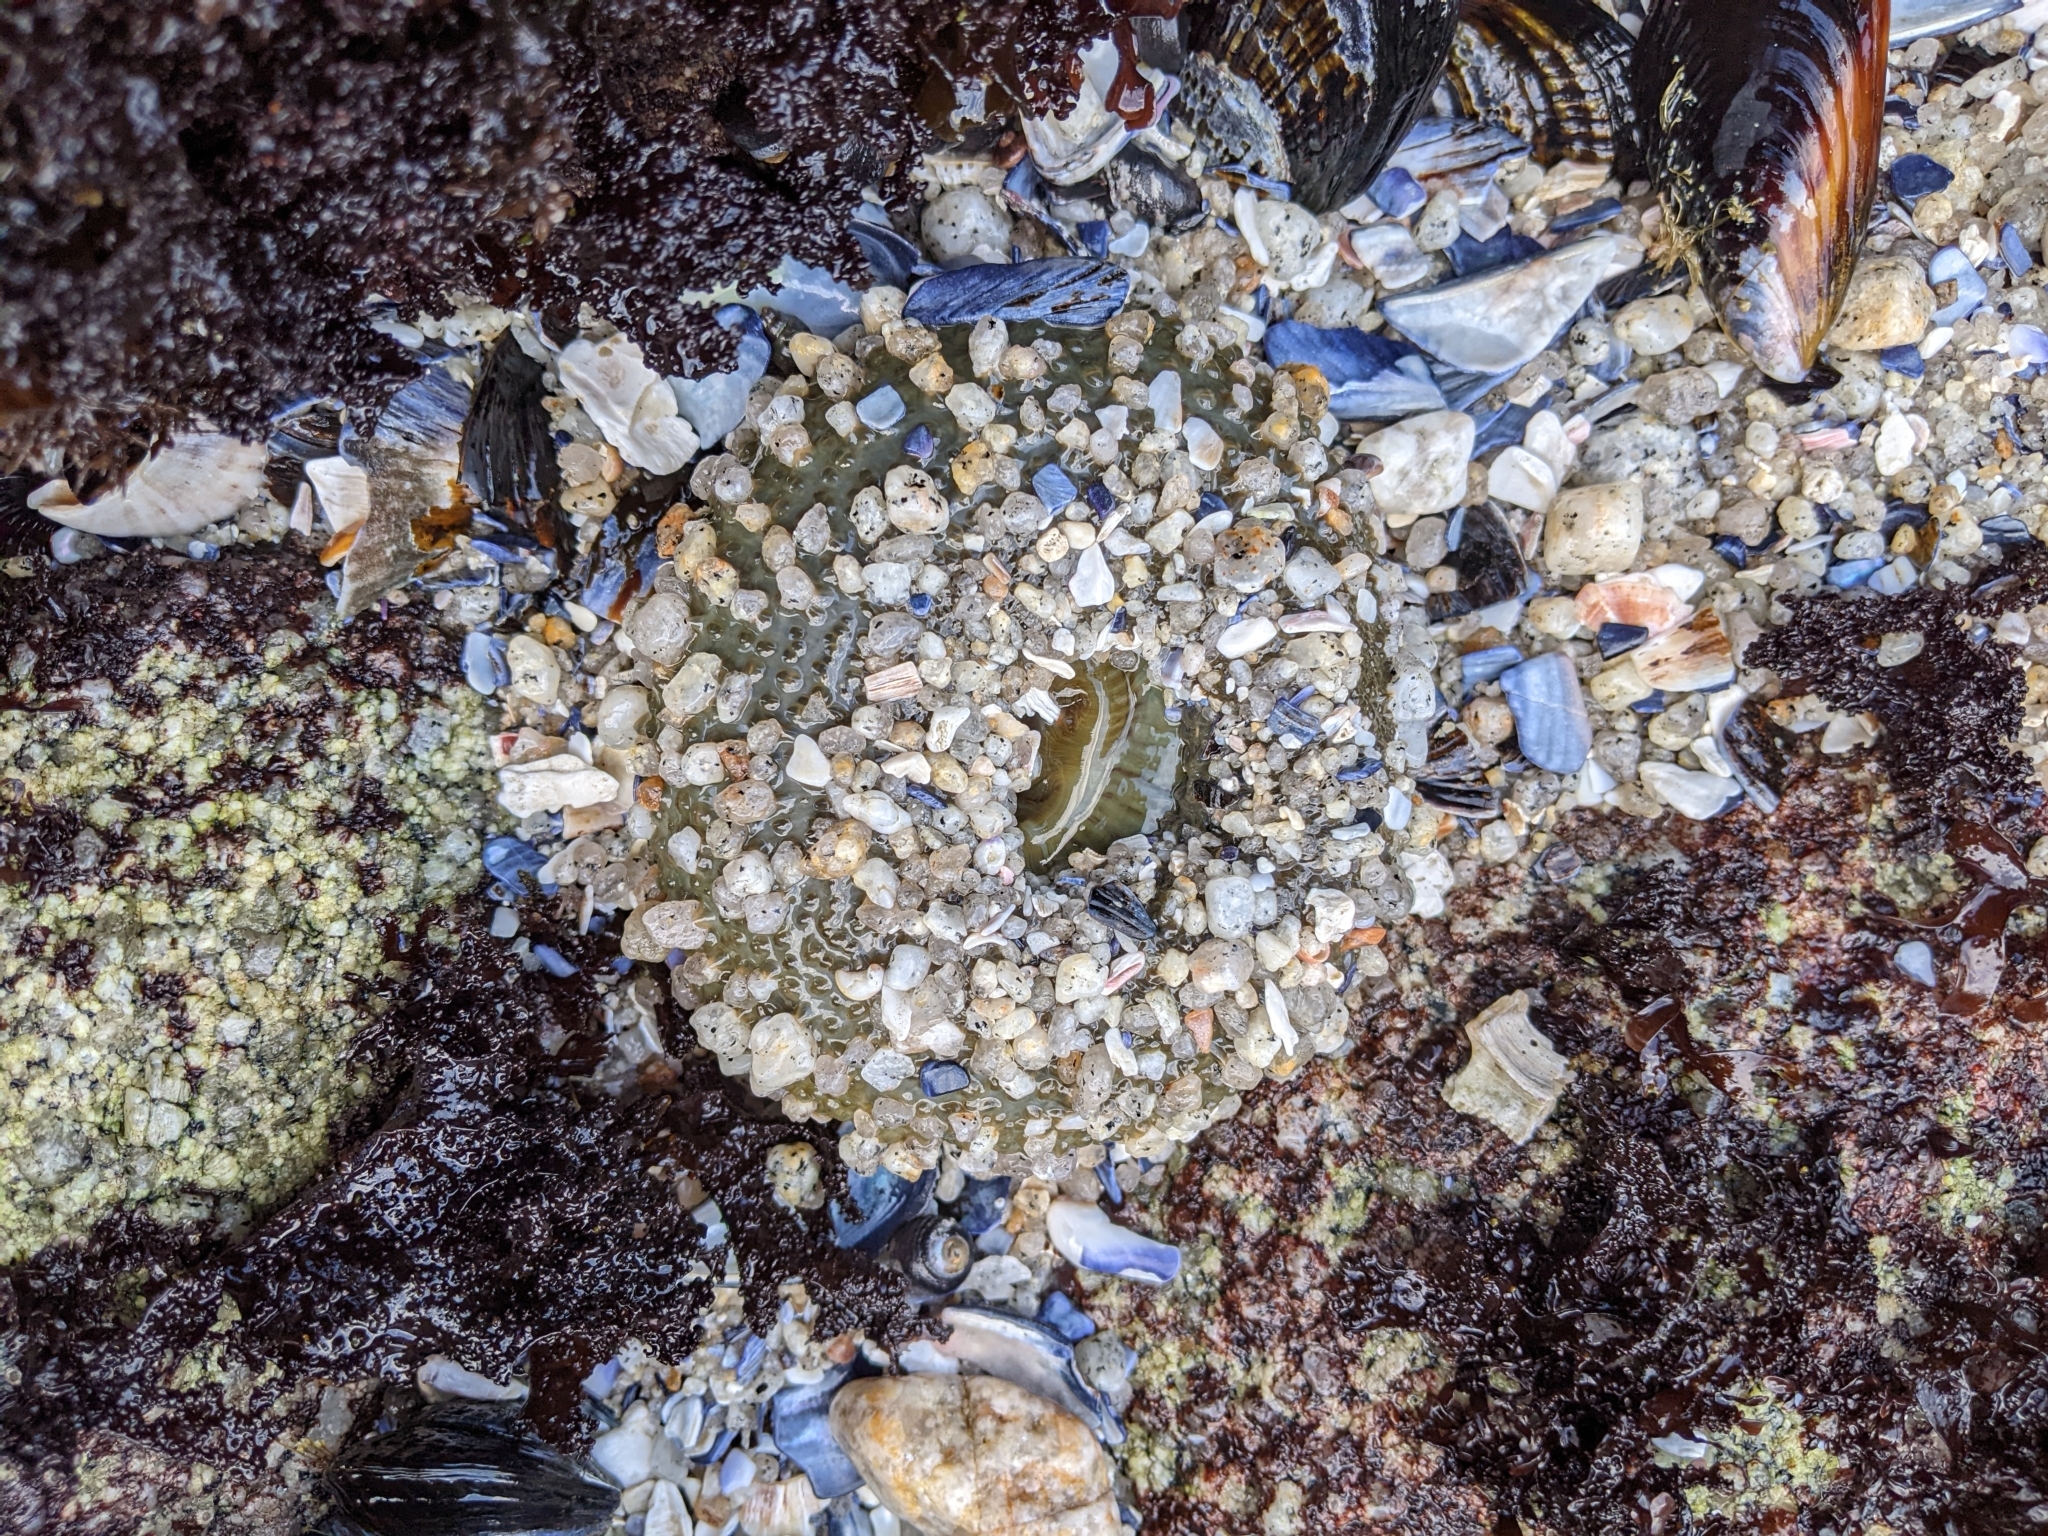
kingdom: Animalia
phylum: Cnidaria
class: Anthozoa
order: Actiniaria
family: Actiniidae
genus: Anthopleura
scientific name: Anthopleura sola
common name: Sun anemone
